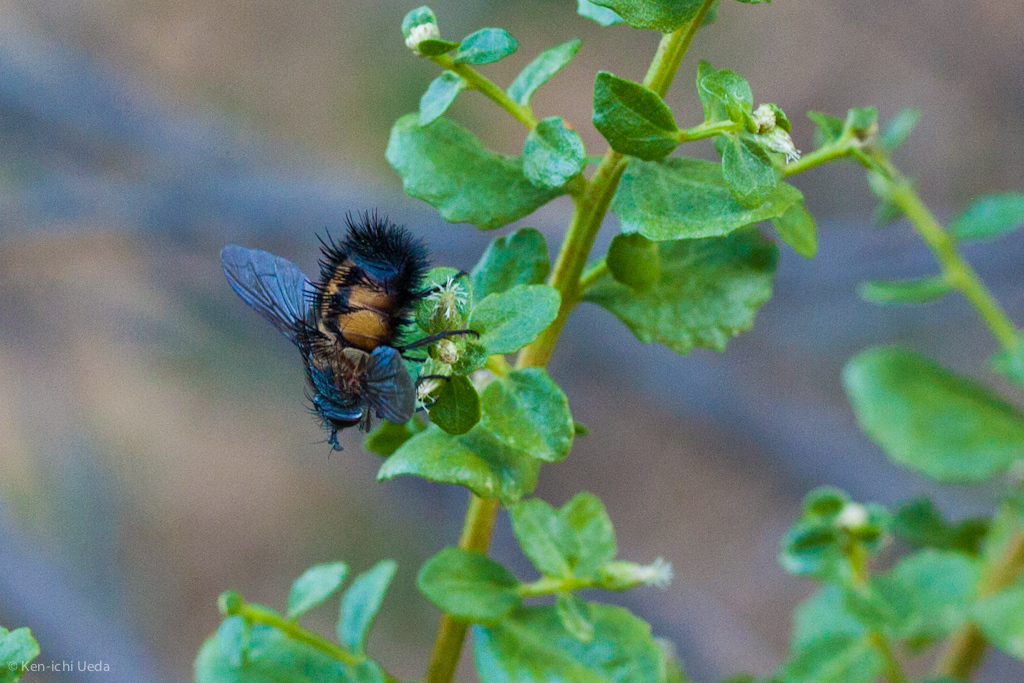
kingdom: Animalia
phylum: Arthropoda
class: Insecta
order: Diptera
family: Tachinidae
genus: Paradejeania
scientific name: Paradejeania rutilioides
